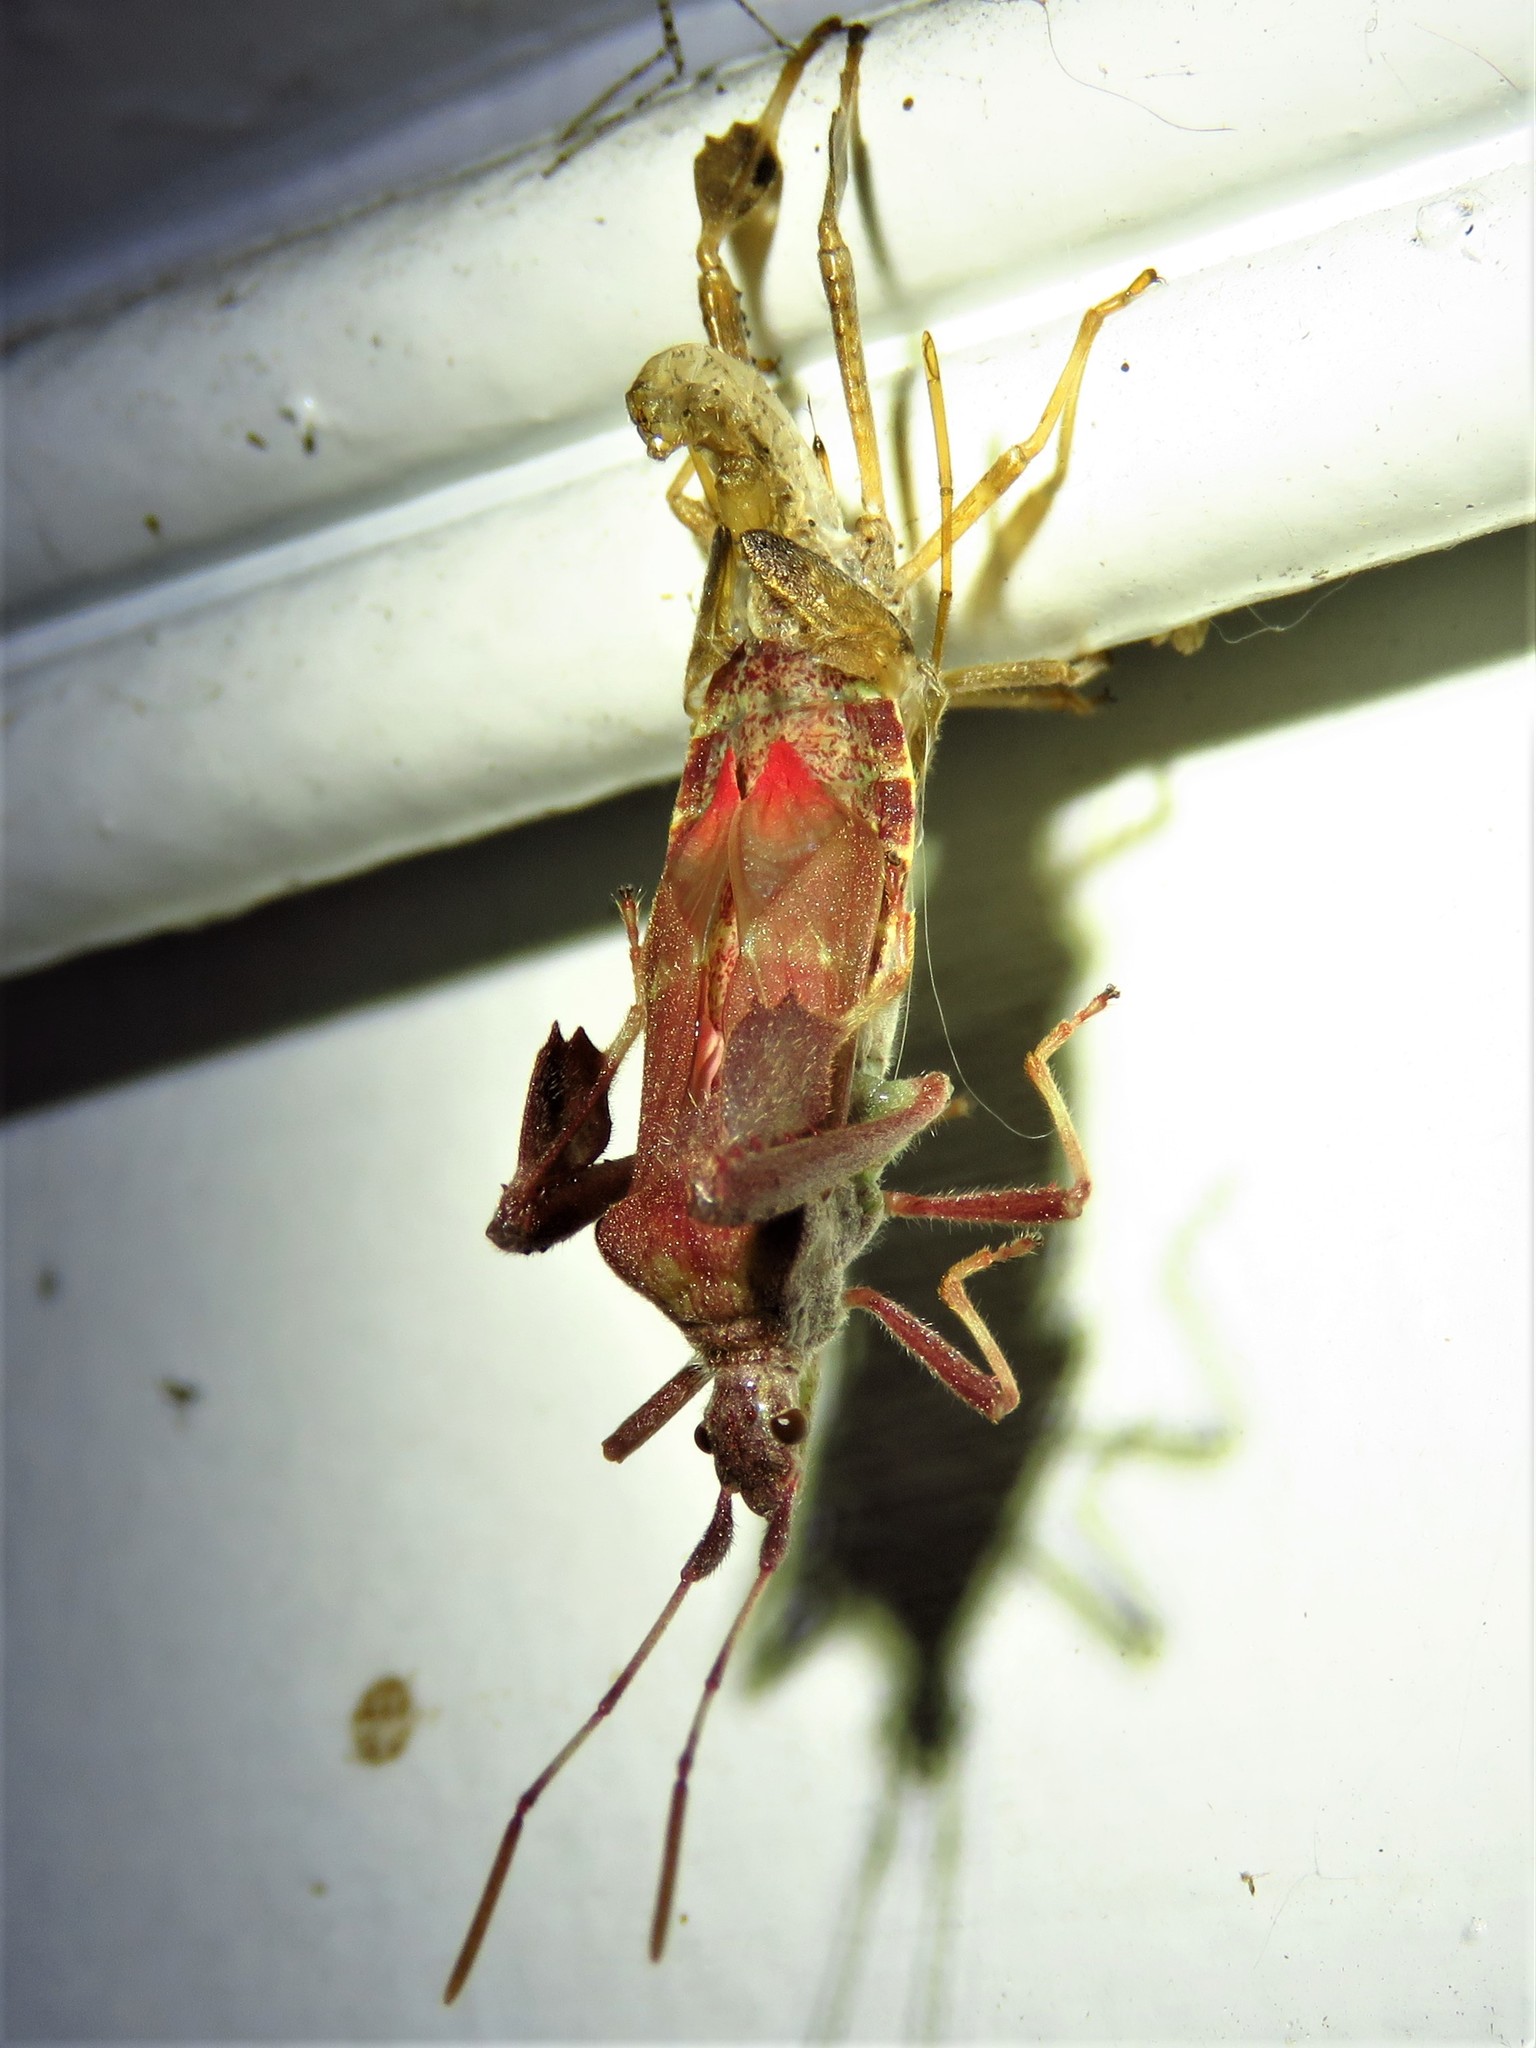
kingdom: Animalia
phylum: Arthropoda
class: Insecta
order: Hemiptera
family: Coreidae
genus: Leptoglossus
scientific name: Leptoglossus oppositus
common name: Northern leaf-footed bug
